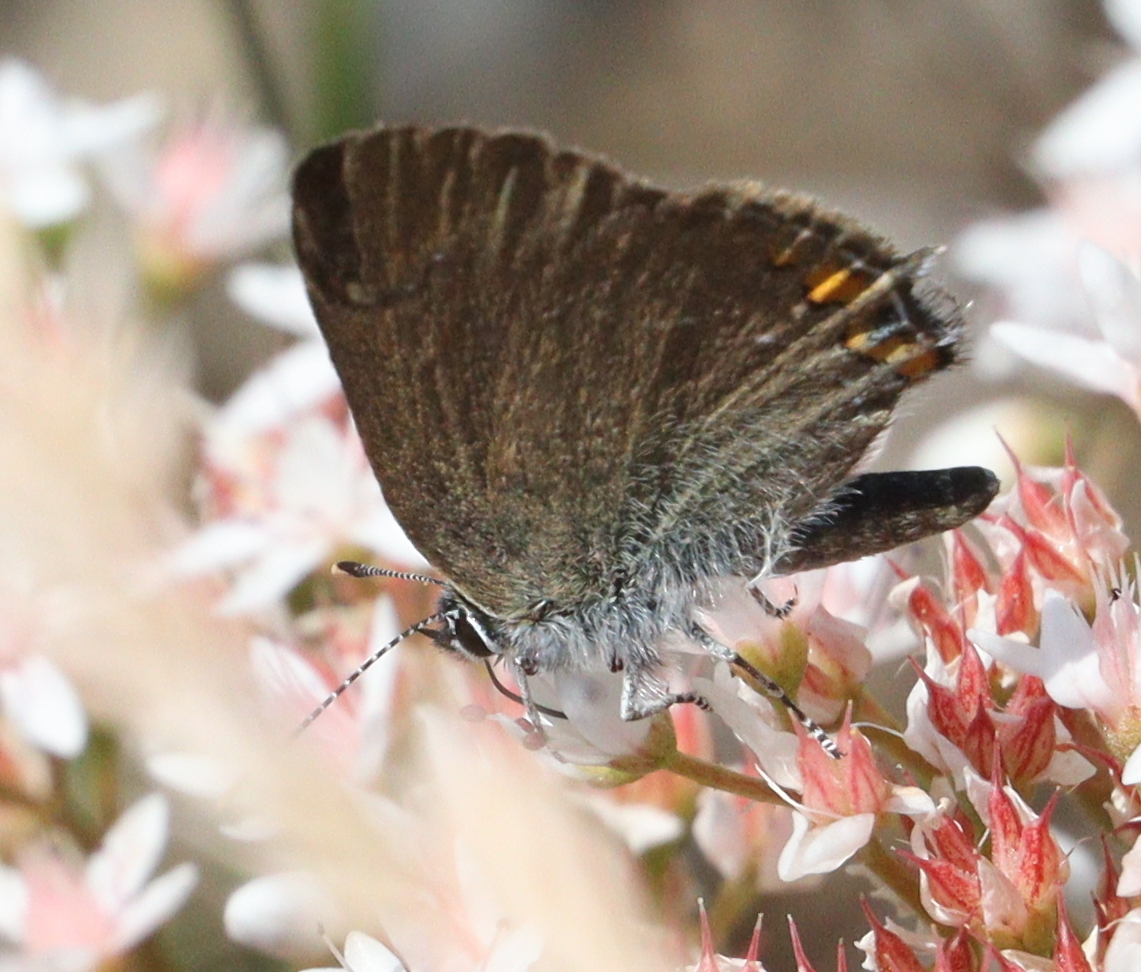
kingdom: Animalia
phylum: Arthropoda
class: Insecta
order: Lepidoptera
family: Lycaenidae
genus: Strymon
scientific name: Strymon acaciae
